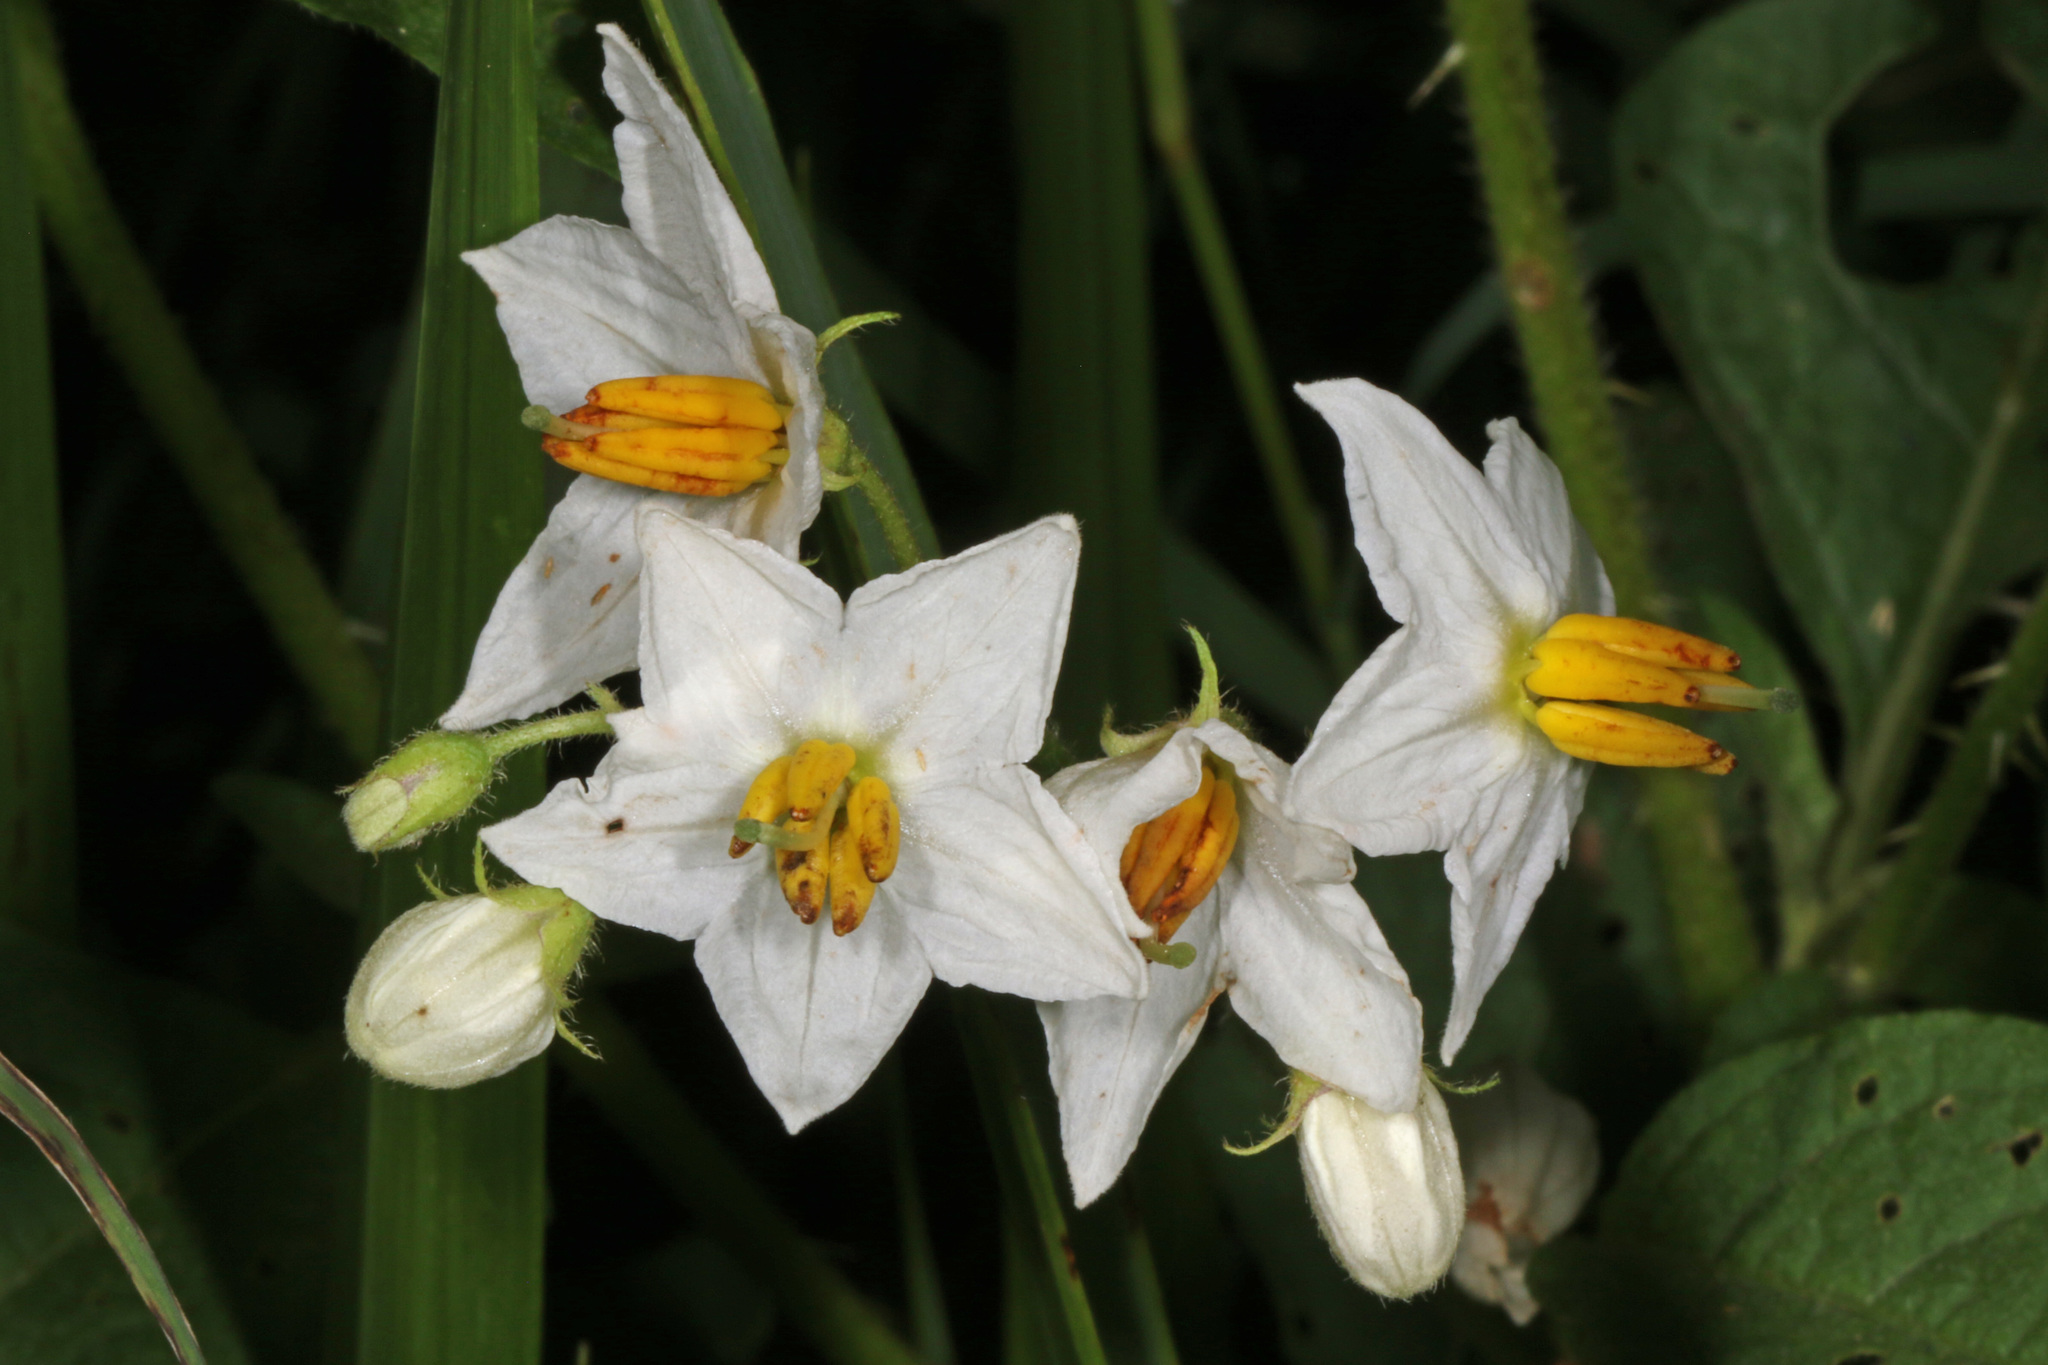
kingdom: Plantae
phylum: Tracheophyta
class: Magnoliopsida
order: Solanales
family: Solanaceae
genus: Solanum
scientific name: Solanum carolinense
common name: Horse-nettle
